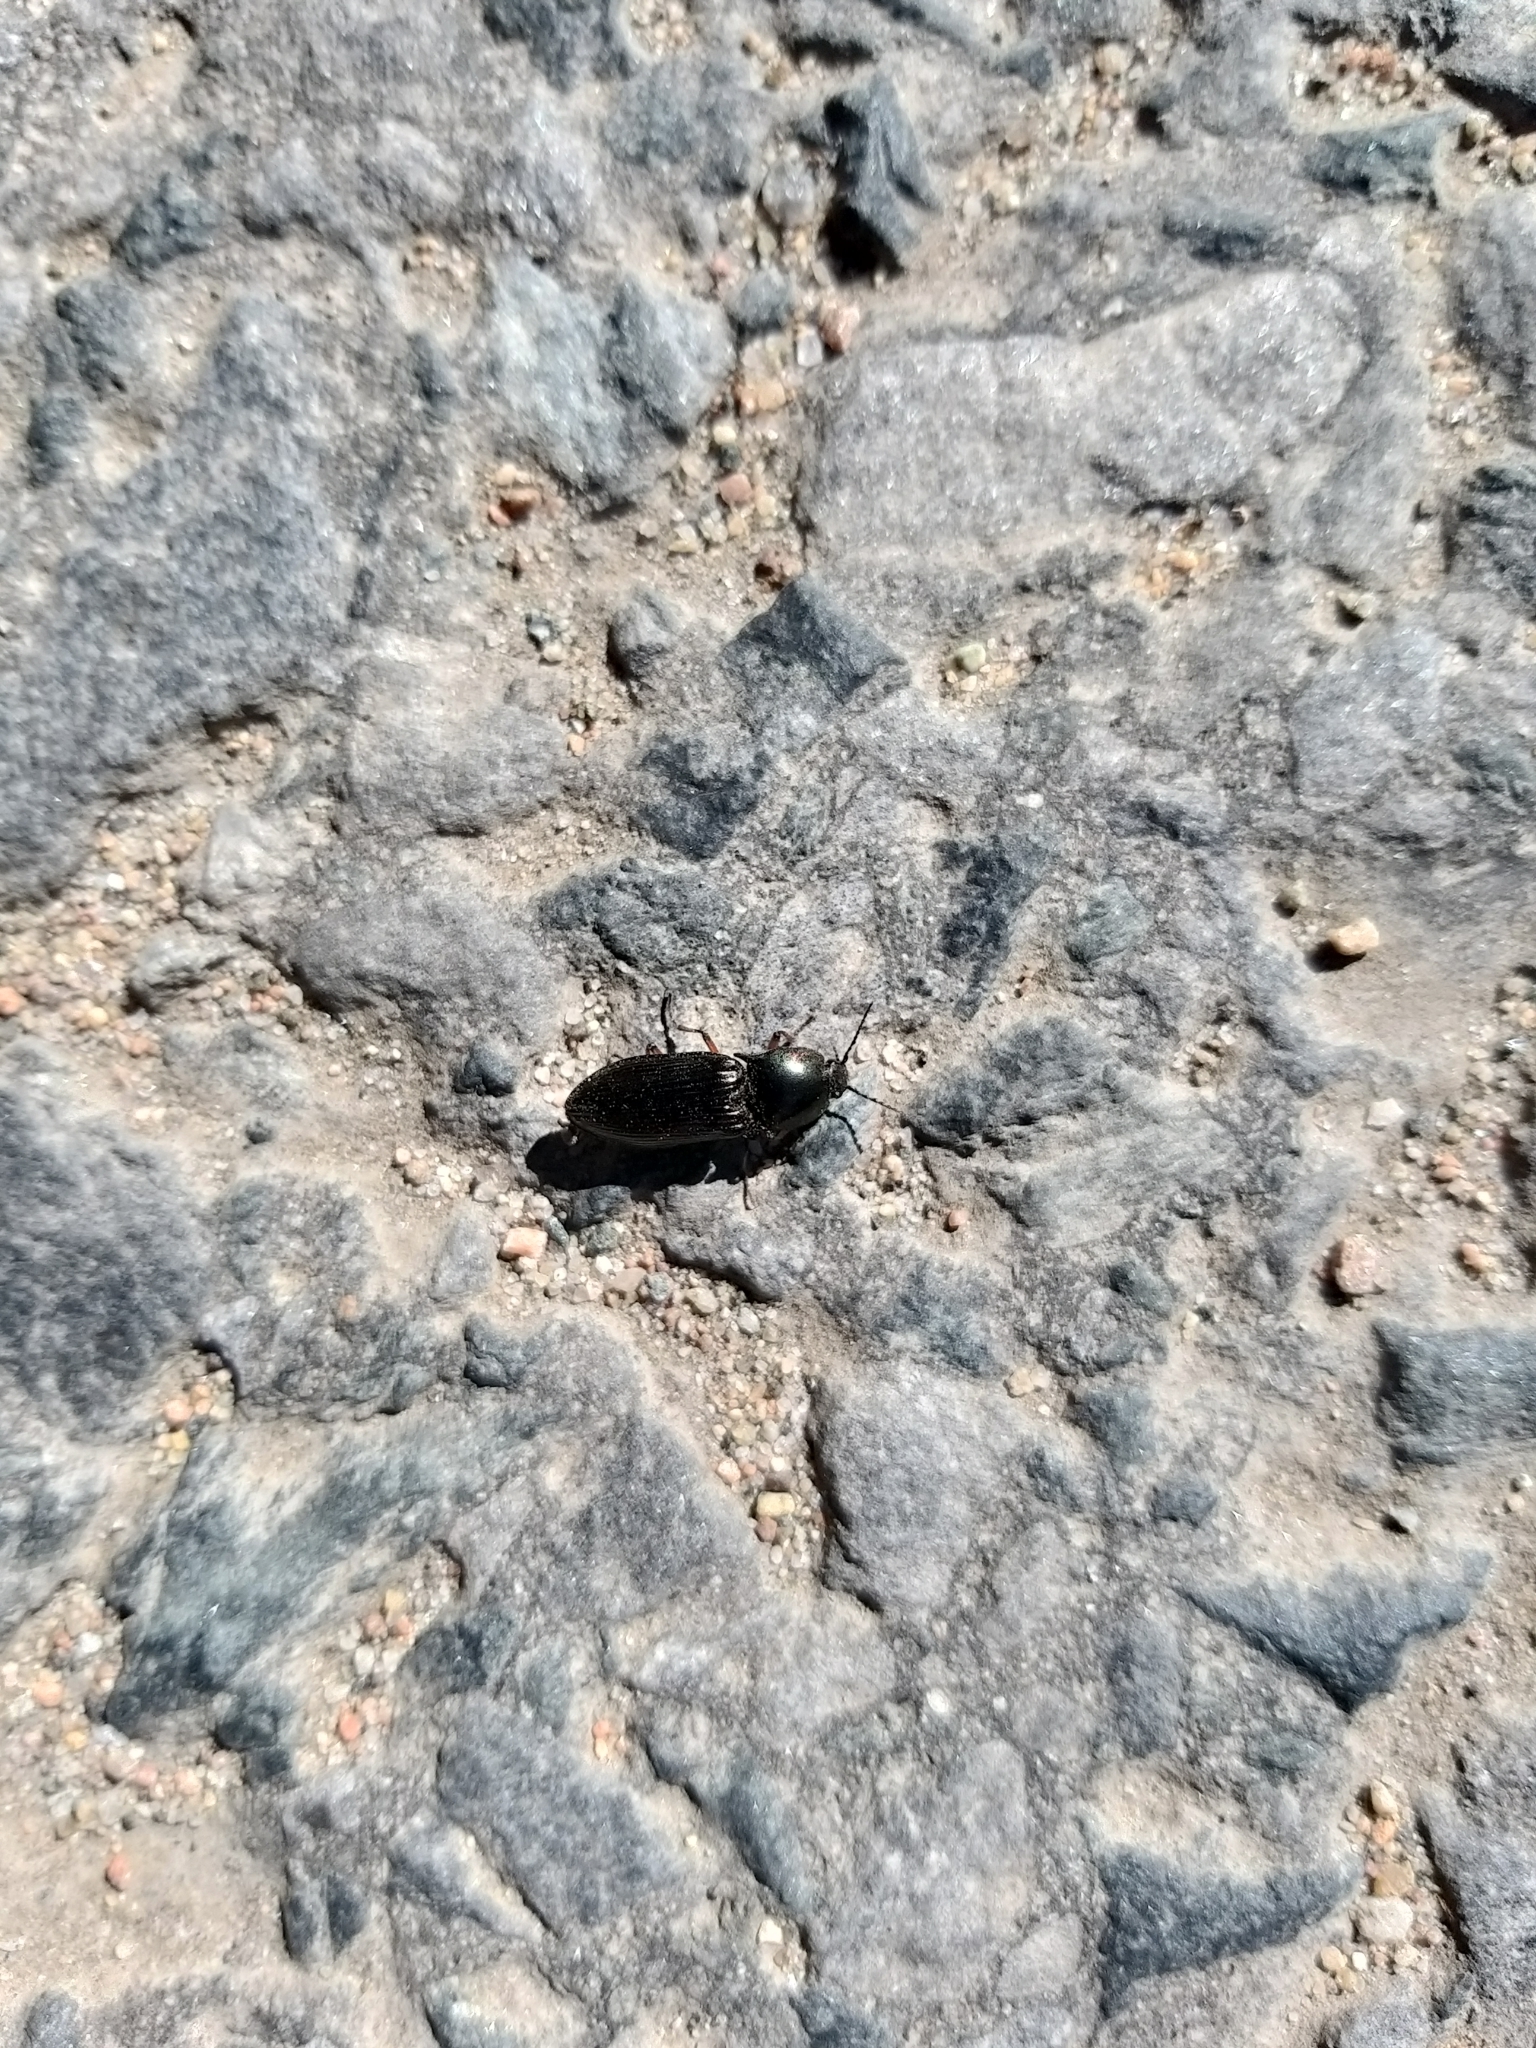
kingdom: Animalia
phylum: Arthropoda
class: Insecta
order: Coleoptera
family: Elateridae
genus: Selatosomus
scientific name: Selatosomus aeneus
